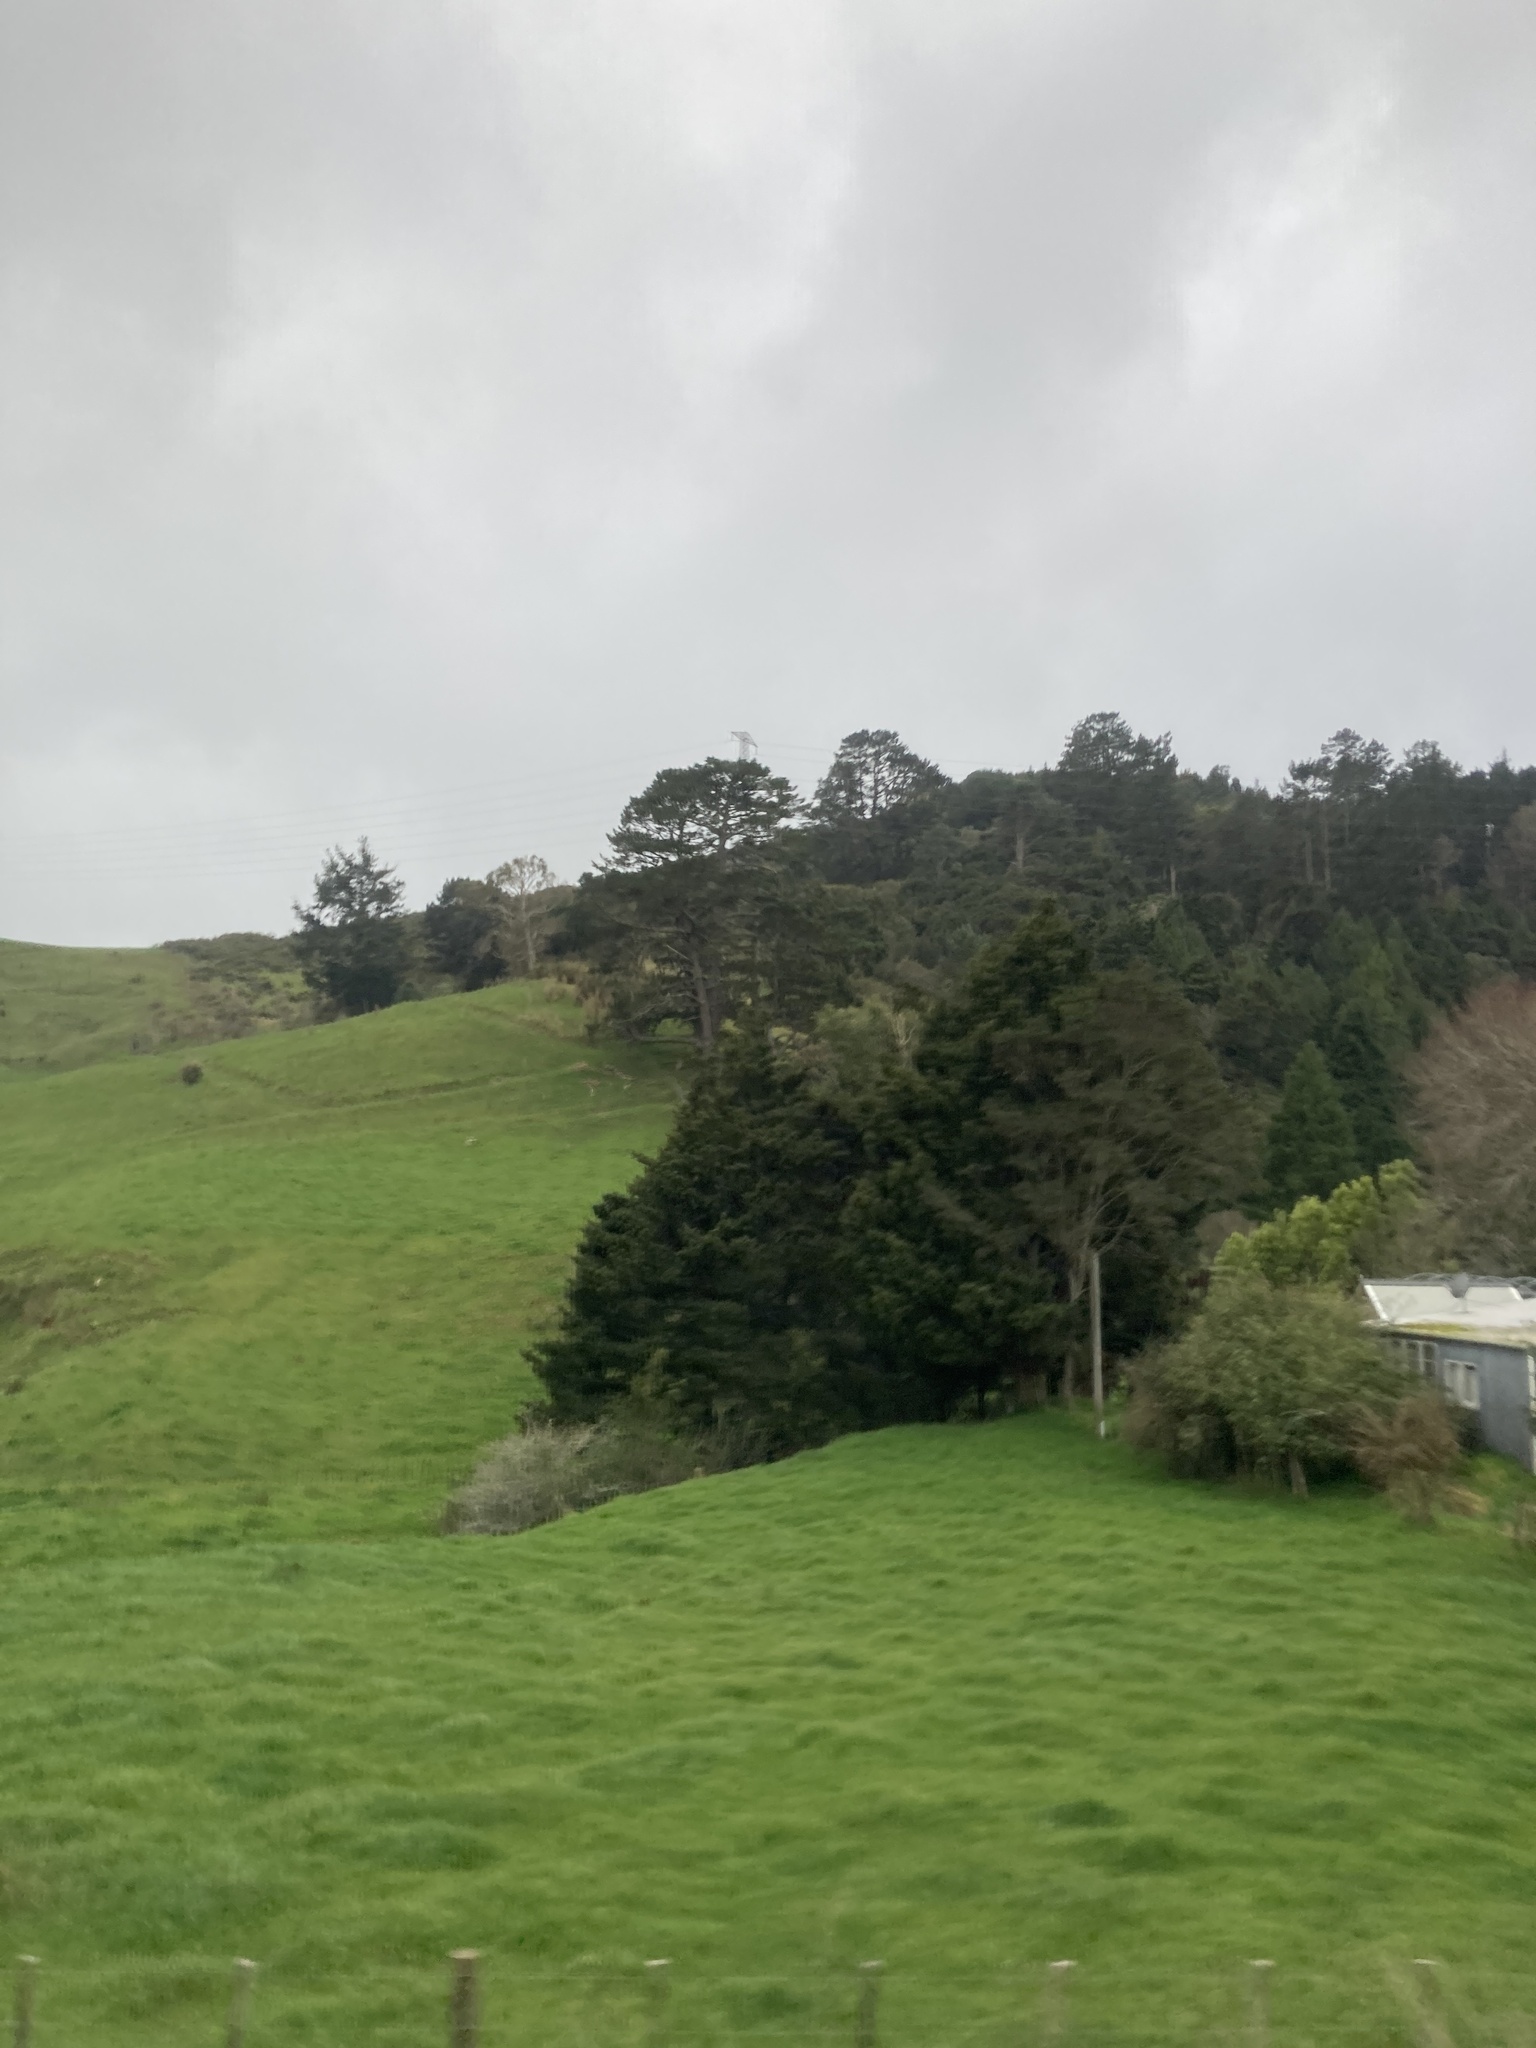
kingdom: Plantae
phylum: Tracheophyta
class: Pinopsida
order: Pinales
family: Podocarpaceae
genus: Podocarpus
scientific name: Podocarpus totara
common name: Totara
